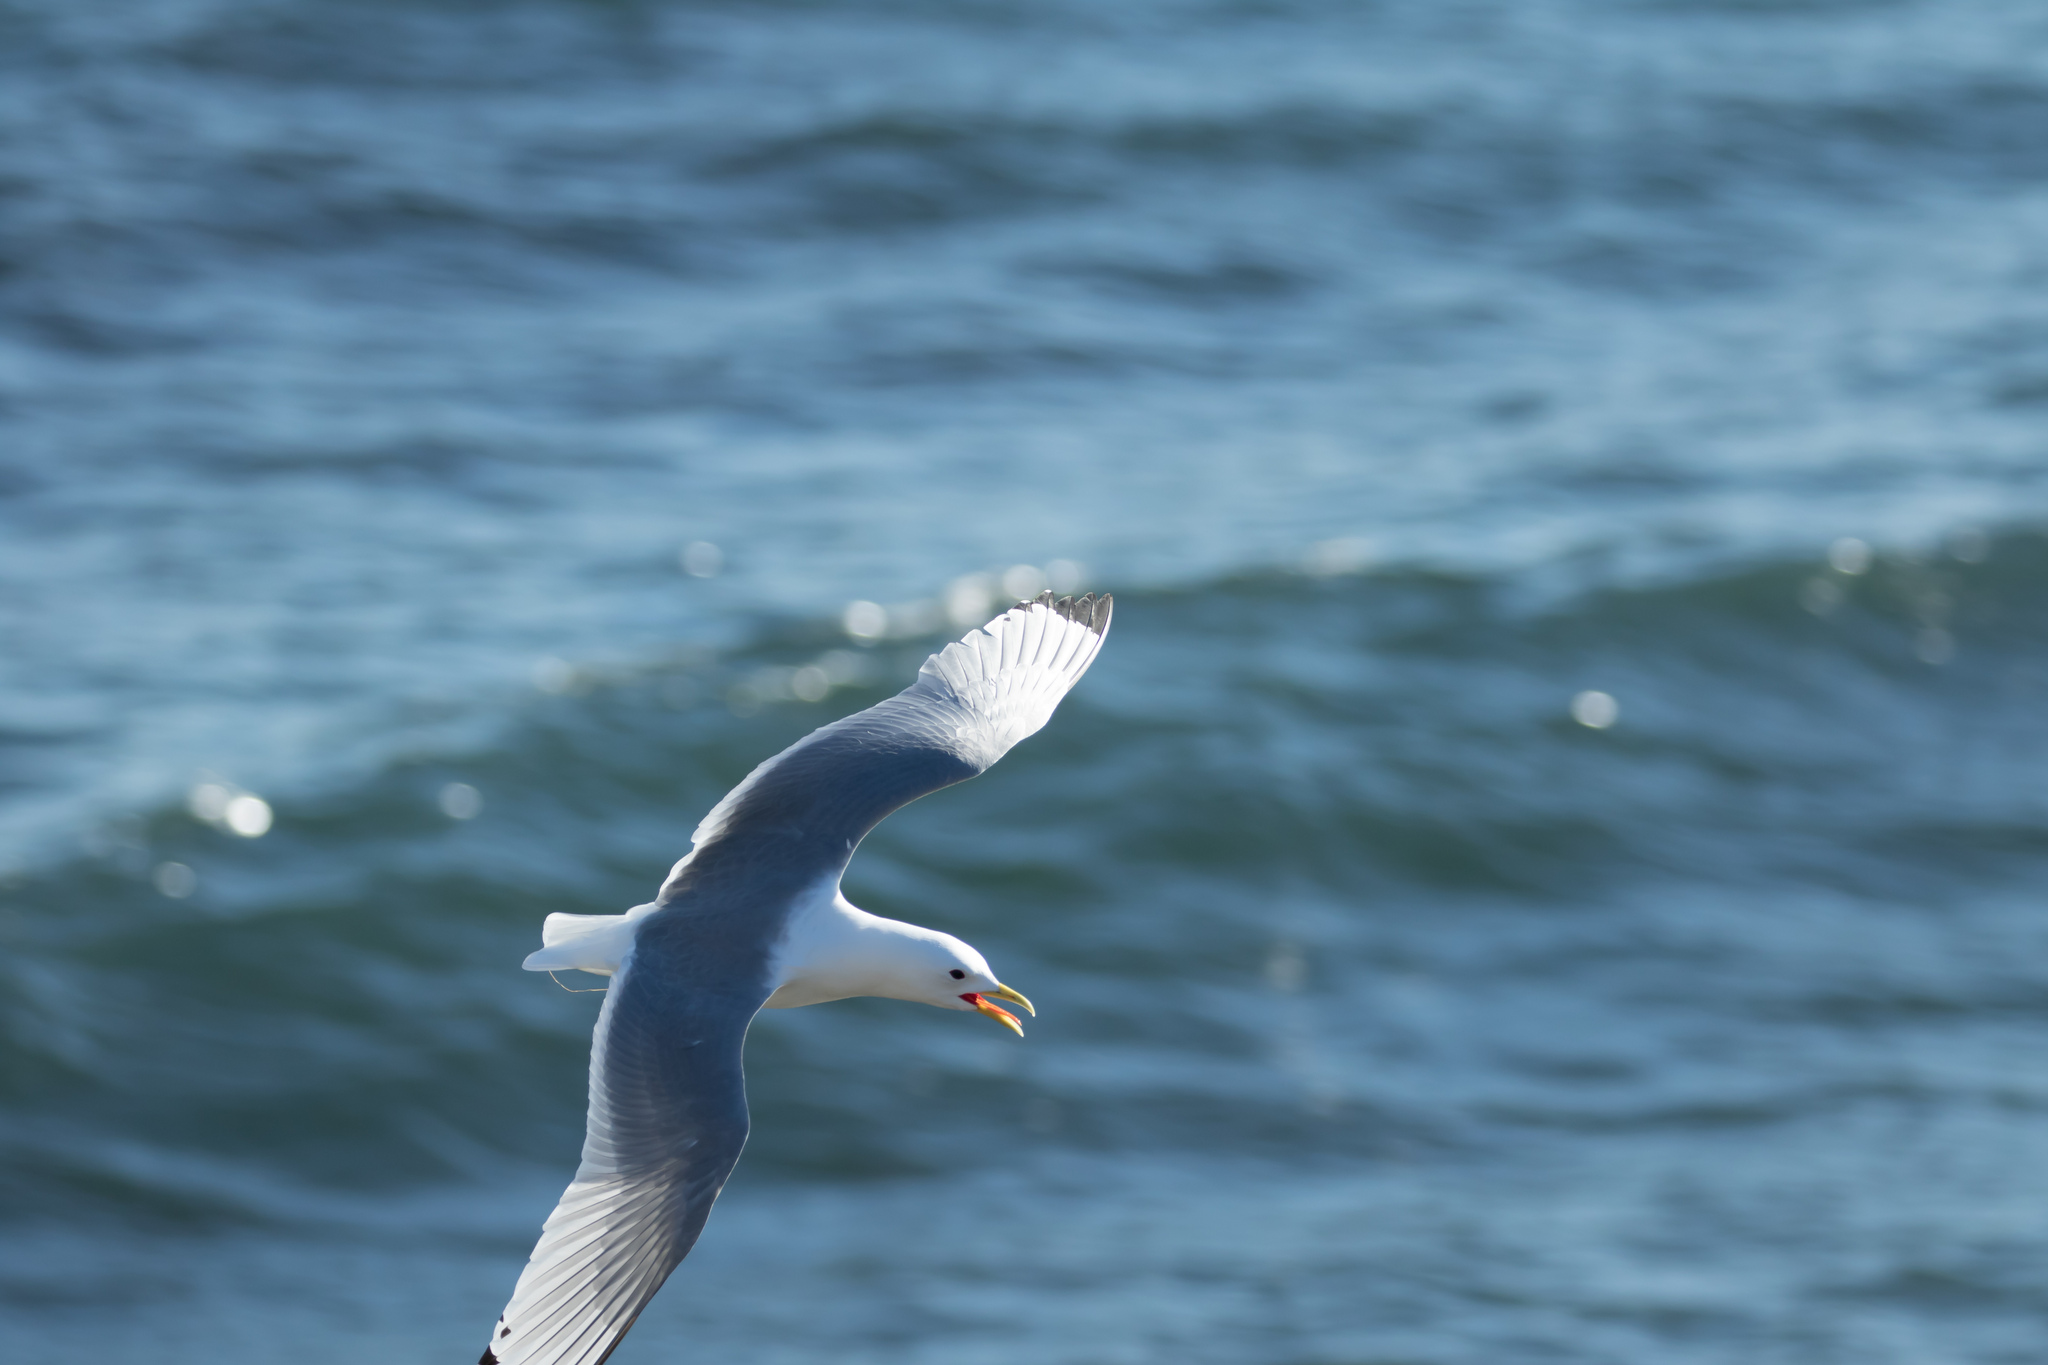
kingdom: Animalia
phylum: Chordata
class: Aves
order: Charadriiformes
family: Laridae
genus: Rissa
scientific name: Rissa tridactyla
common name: Black-legged kittiwake
